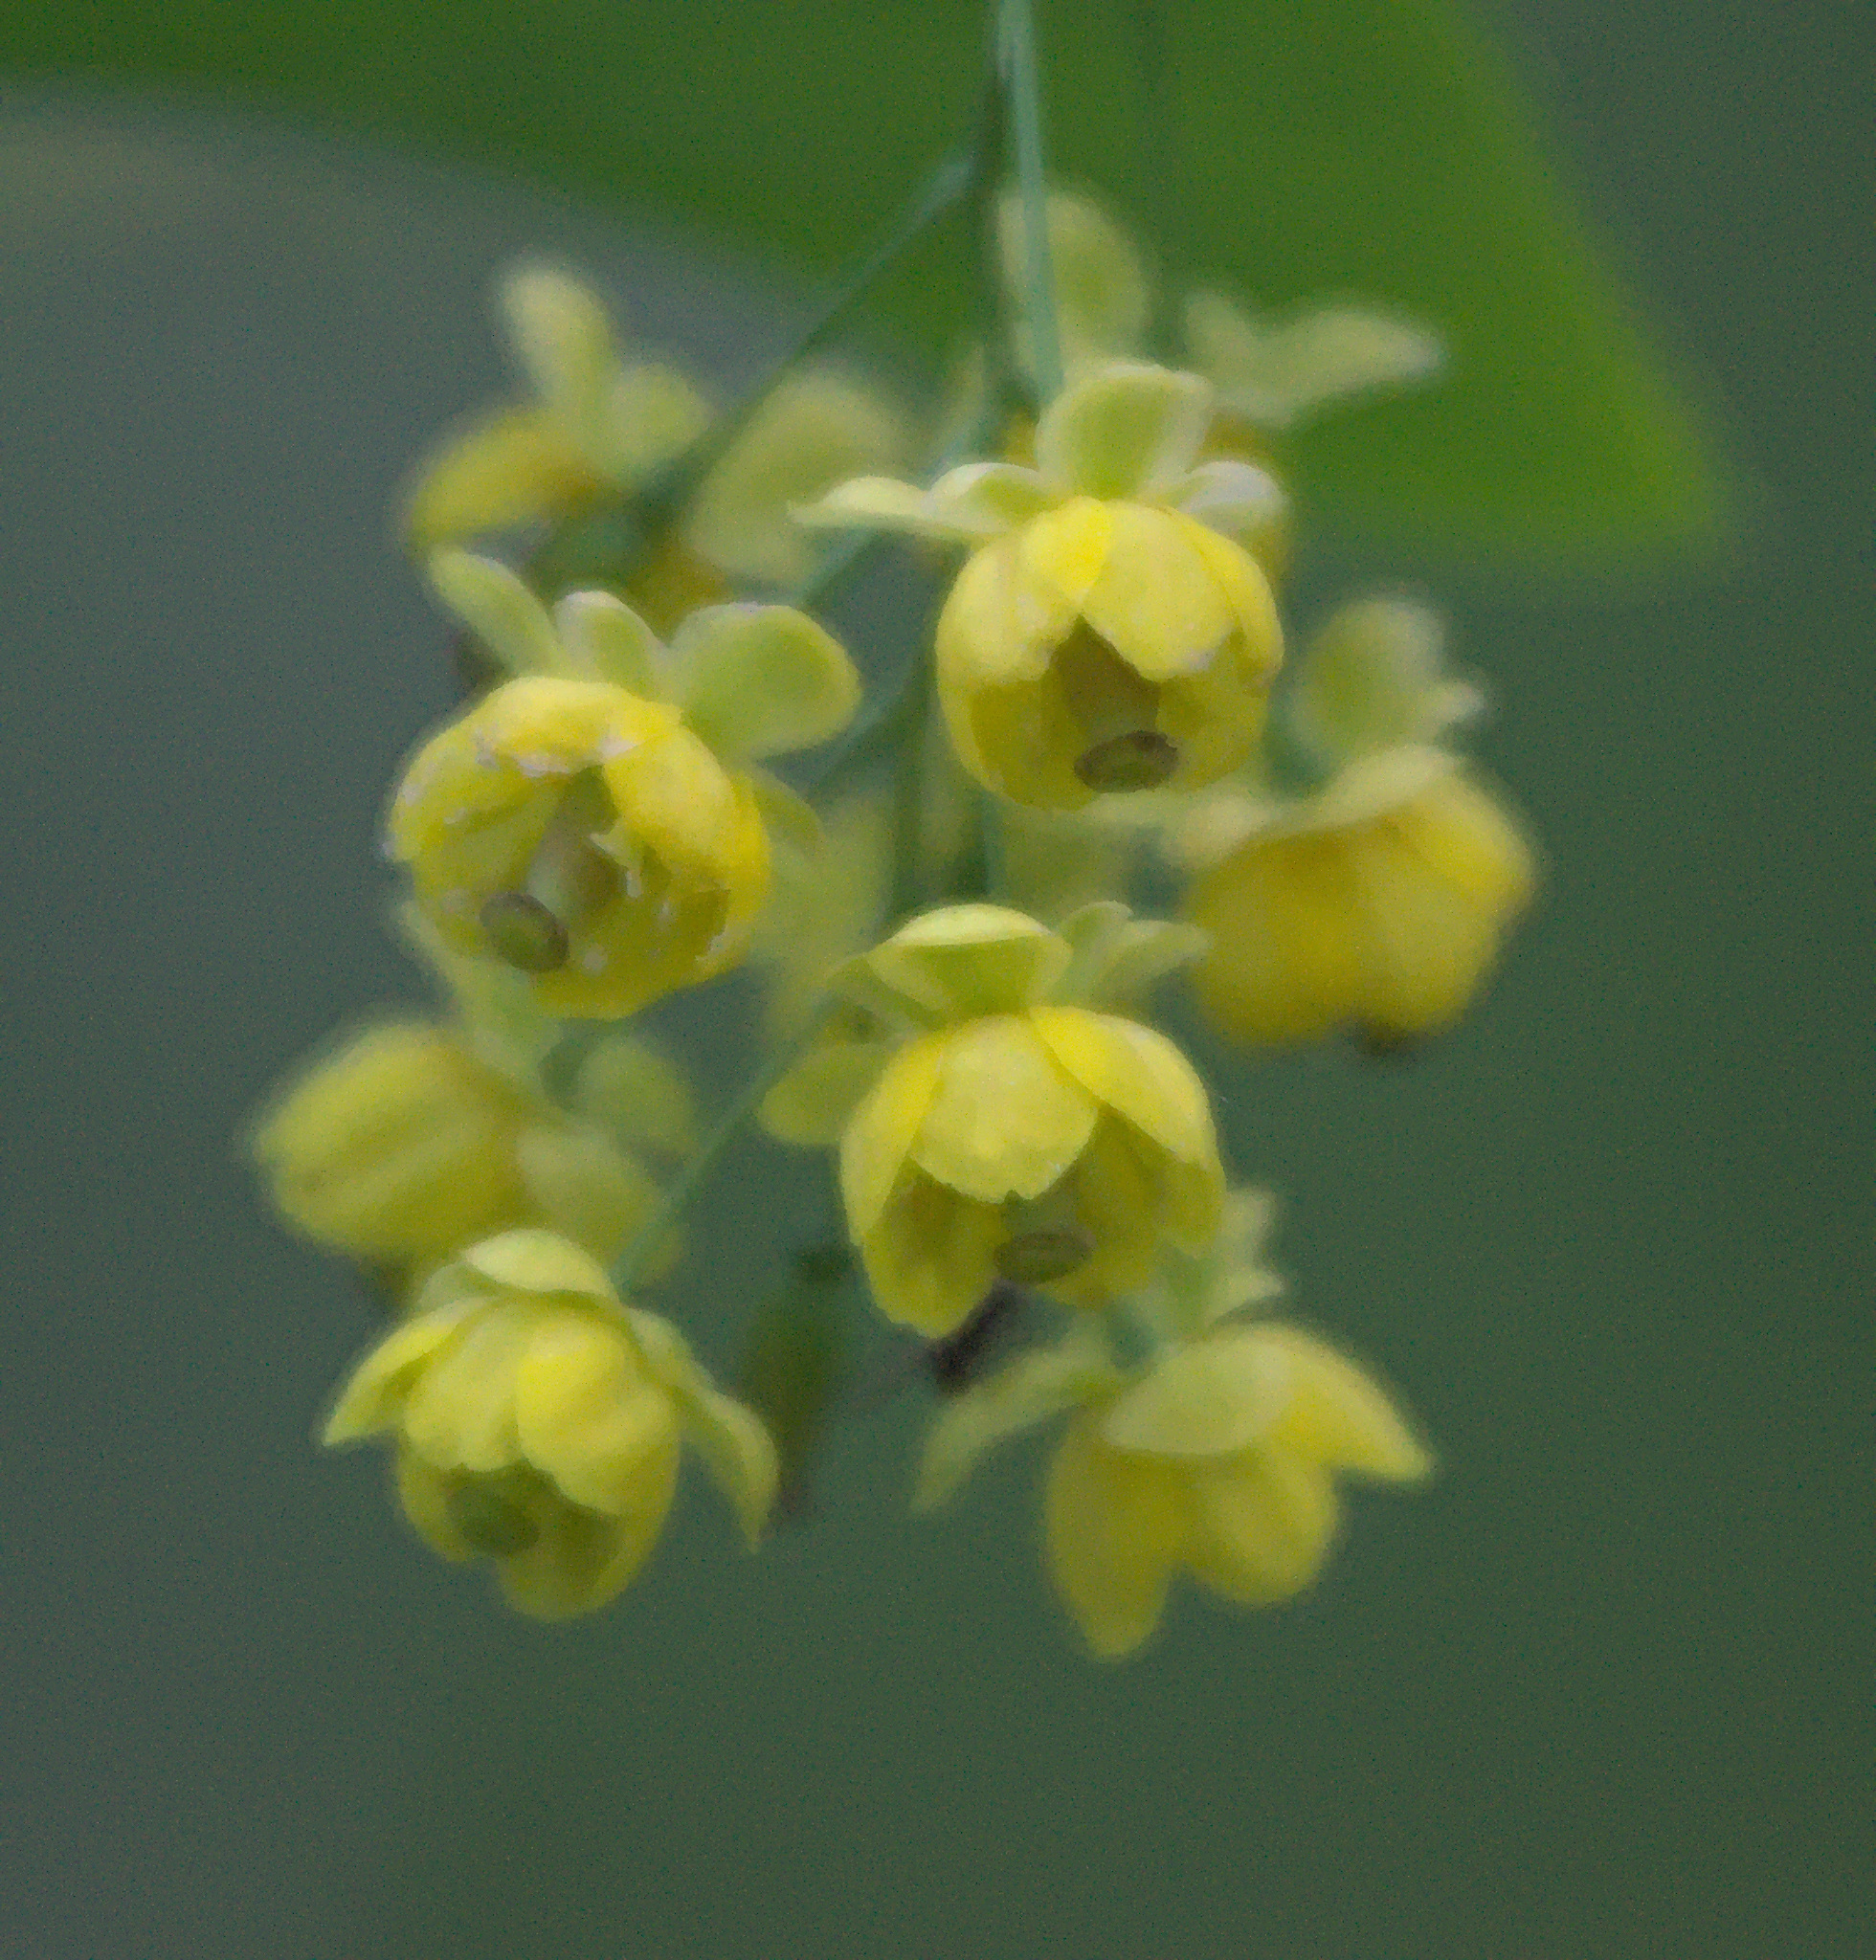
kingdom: Plantae
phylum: Tracheophyta
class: Magnoliopsida
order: Ranunculales
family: Berberidaceae
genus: Berberis
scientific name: Berberis vulgaris
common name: Barberry
